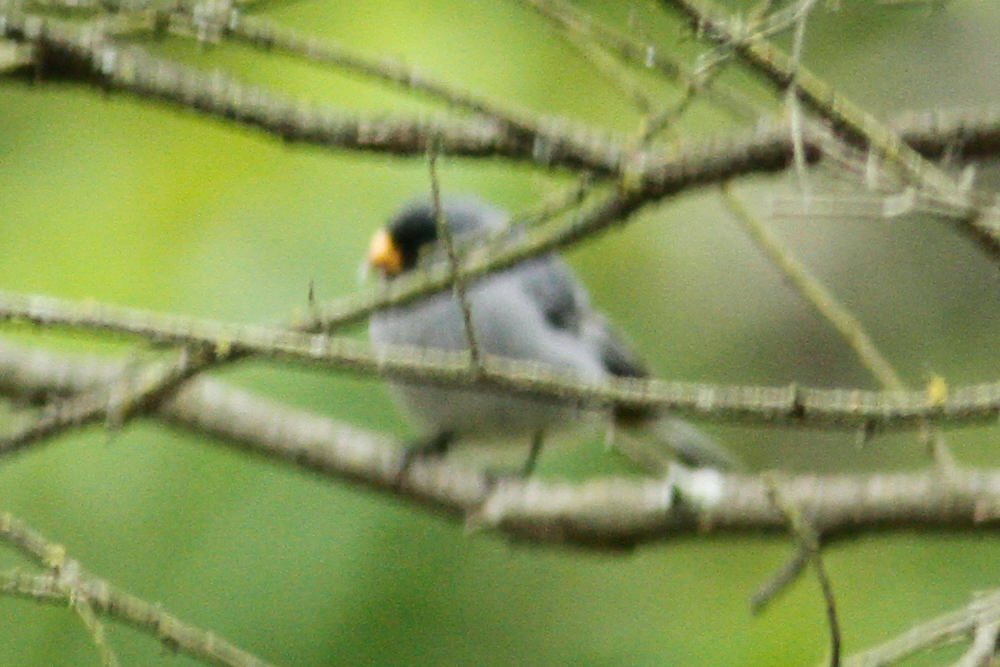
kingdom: Animalia
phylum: Chordata
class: Aves
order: Passeriformes
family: Thraupidae
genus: Catamenia
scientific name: Catamenia analis
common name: Band-tailed seedeater
